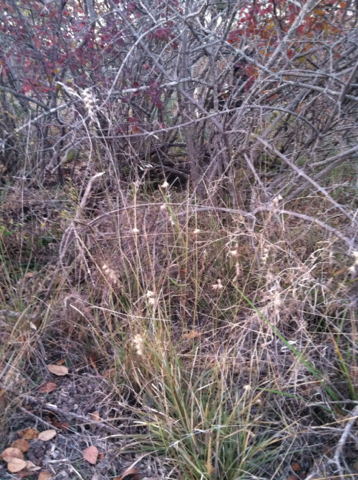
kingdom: Plantae
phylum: Tracheophyta
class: Liliopsida
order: Poales
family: Poaceae
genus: Bouteloua
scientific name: Bouteloua rigidiseta
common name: Texas grama
